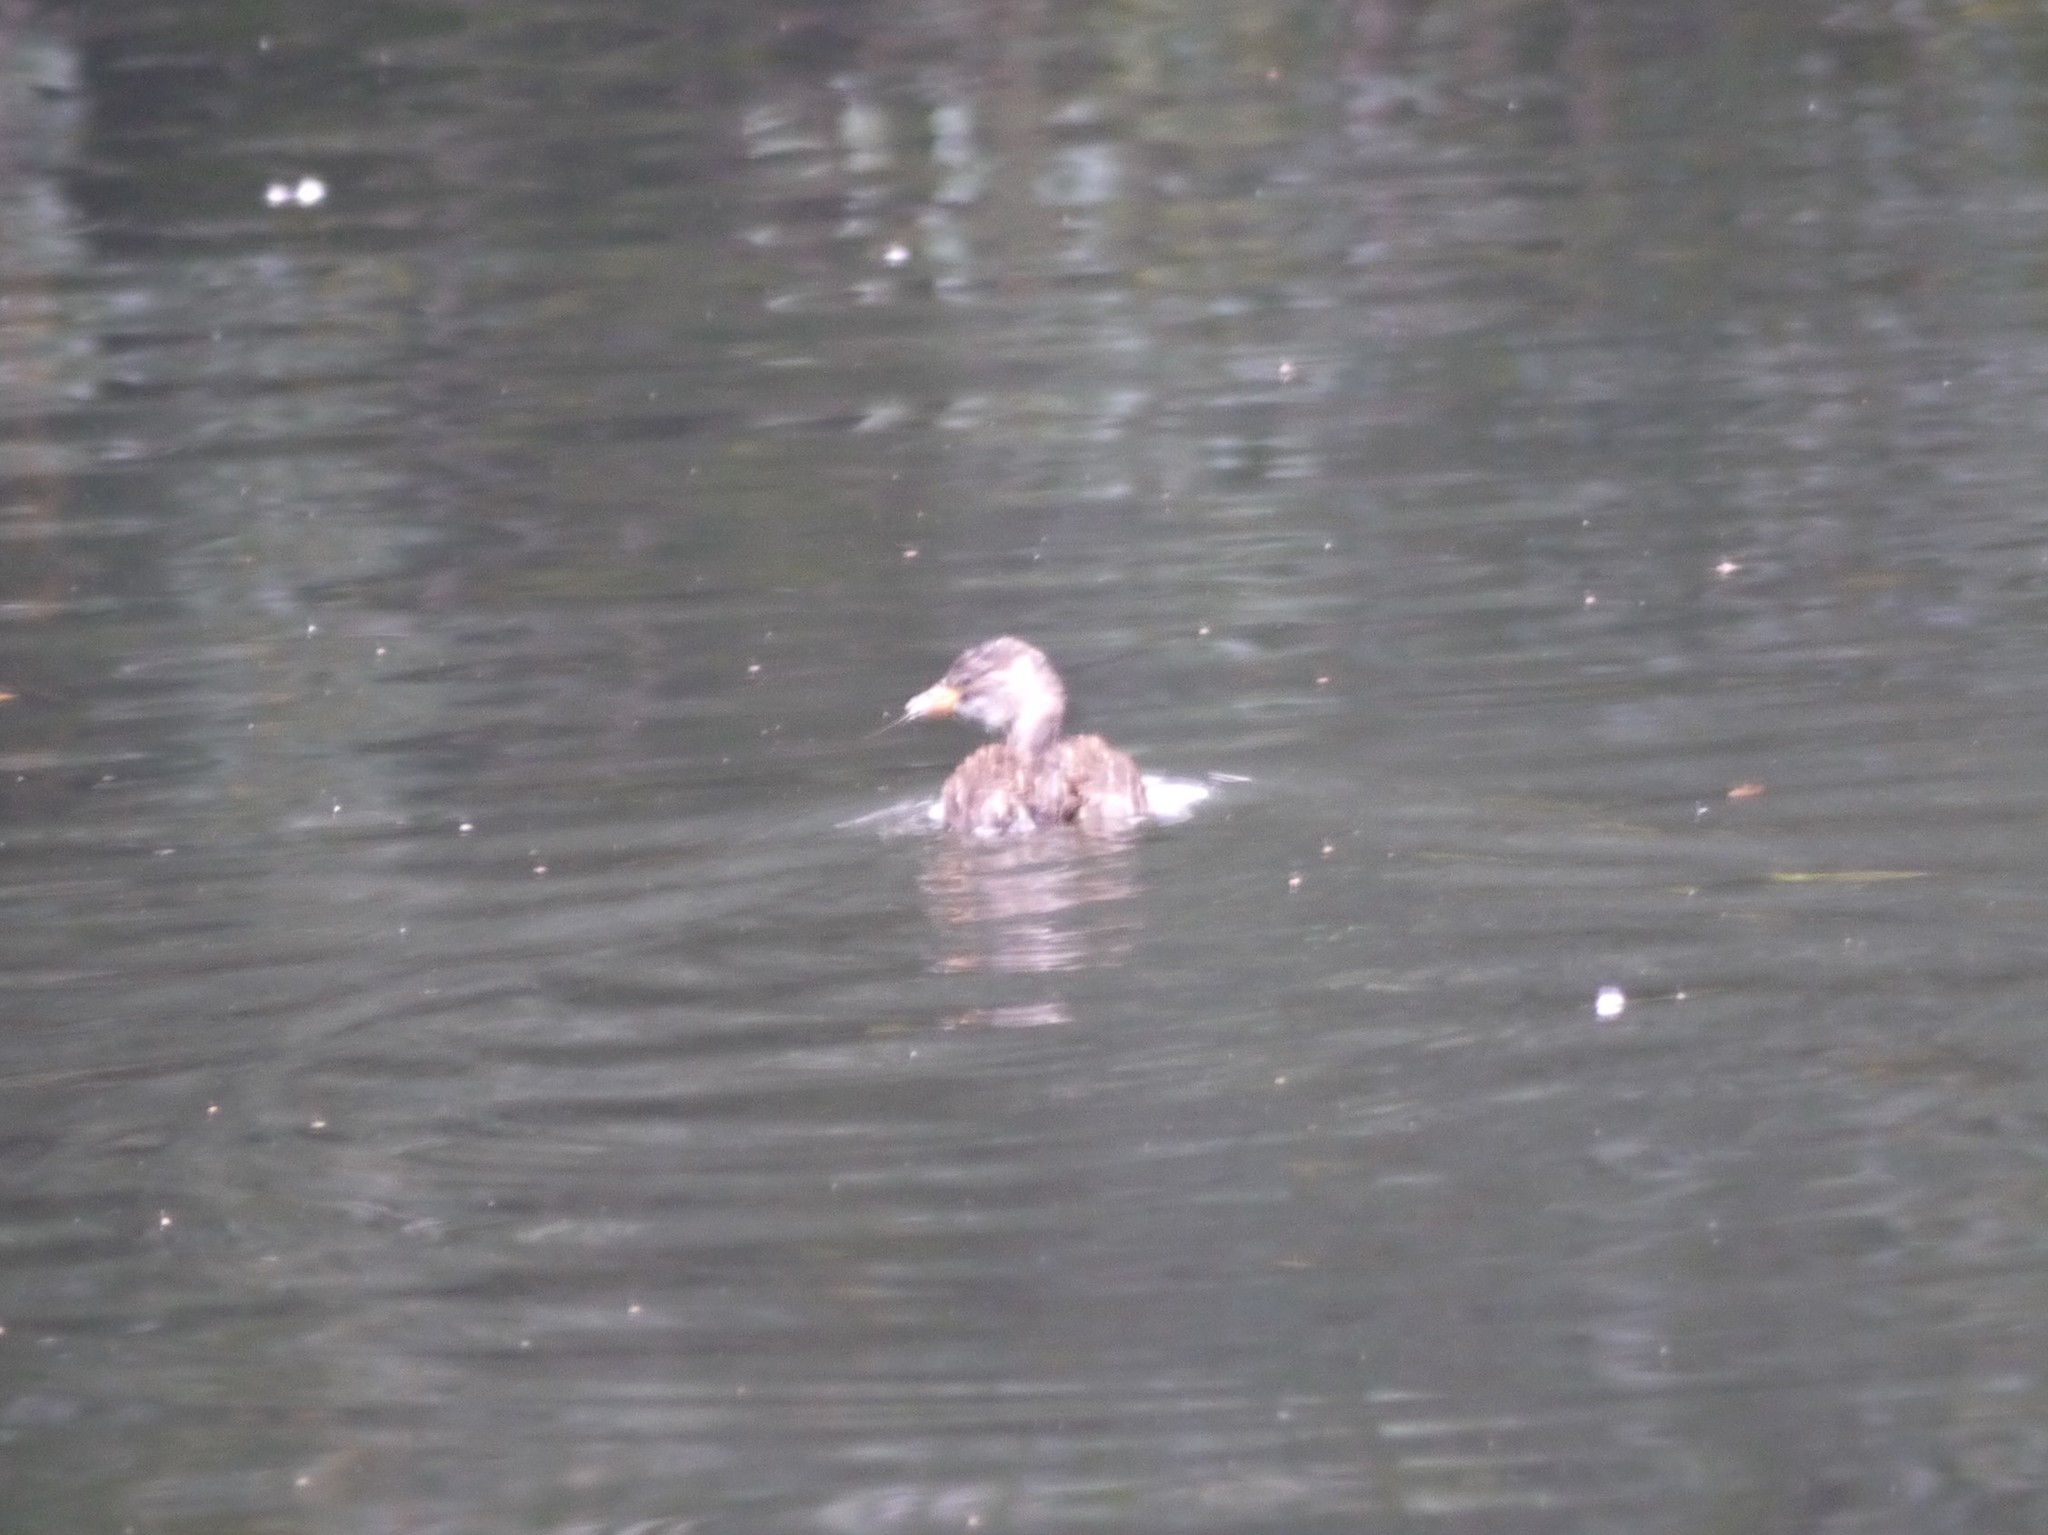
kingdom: Animalia
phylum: Chordata
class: Aves
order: Podicipediformes
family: Podicipedidae
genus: Tachybaptus
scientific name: Tachybaptus ruficollis
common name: Little grebe
